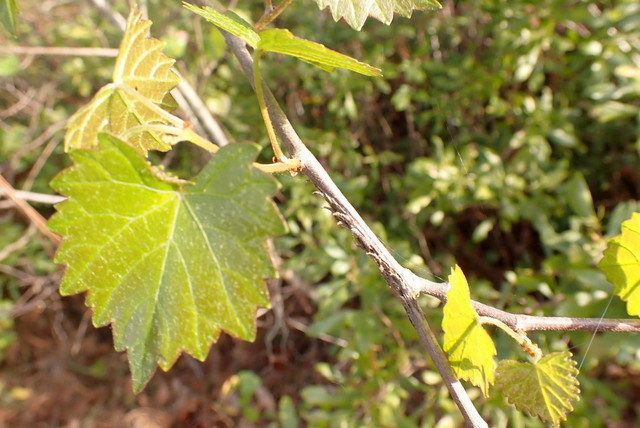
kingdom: Plantae
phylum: Tracheophyta
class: Magnoliopsida
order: Vitales
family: Vitaceae
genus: Vitis
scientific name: Vitis rotundifolia
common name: Muscadine grape
